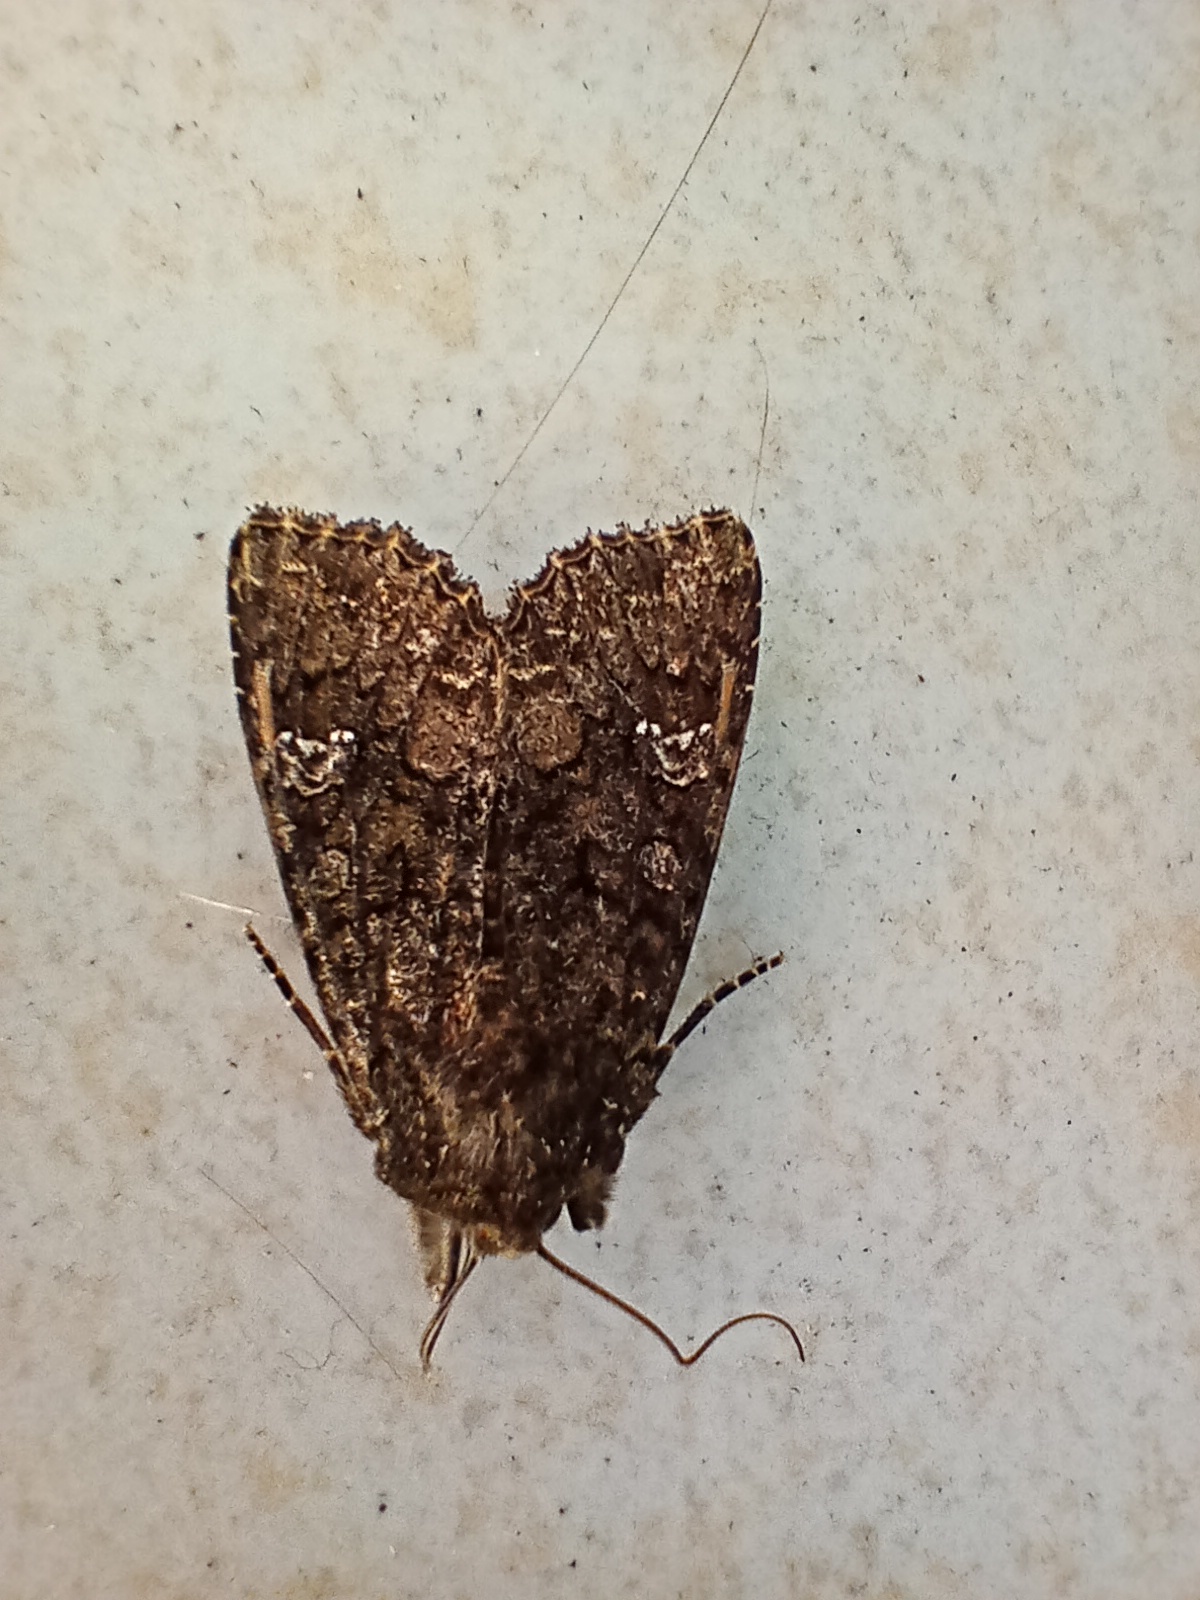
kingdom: Animalia
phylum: Arthropoda
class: Insecta
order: Lepidoptera
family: Noctuidae
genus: Mamestra
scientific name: Mamestra brassicae
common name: Cabbage moth
